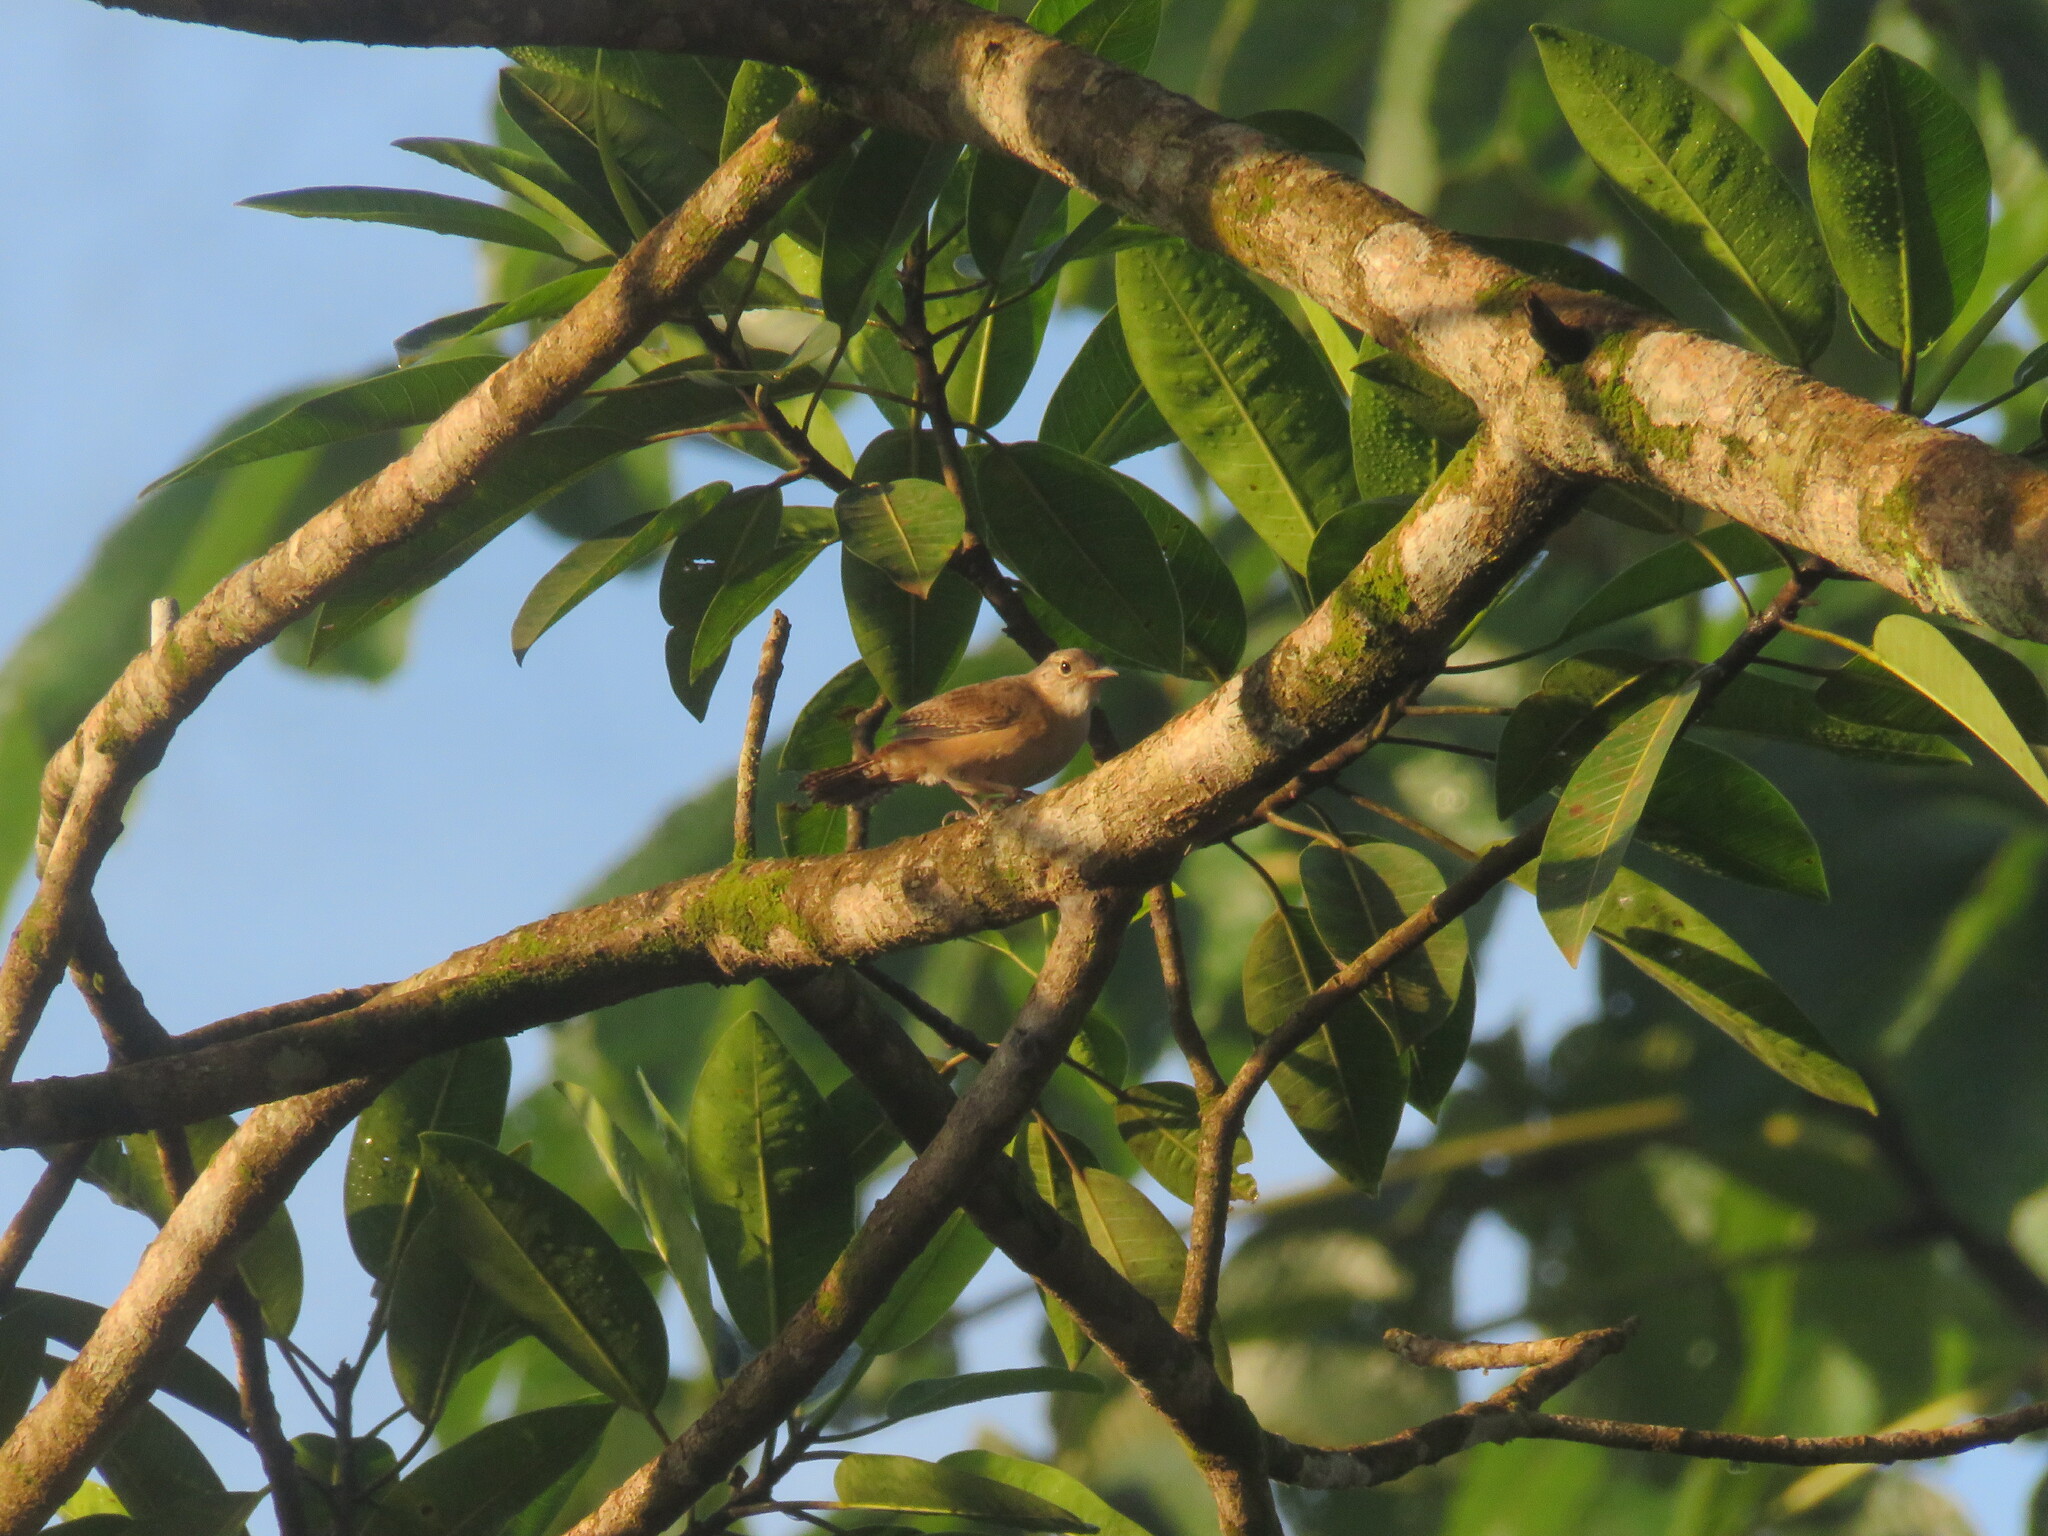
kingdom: Animalia
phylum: Chordata
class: Aves
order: Passeriformes
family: Troglodytidae
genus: Troglodytes
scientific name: Troglodytes aedon
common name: House wren
